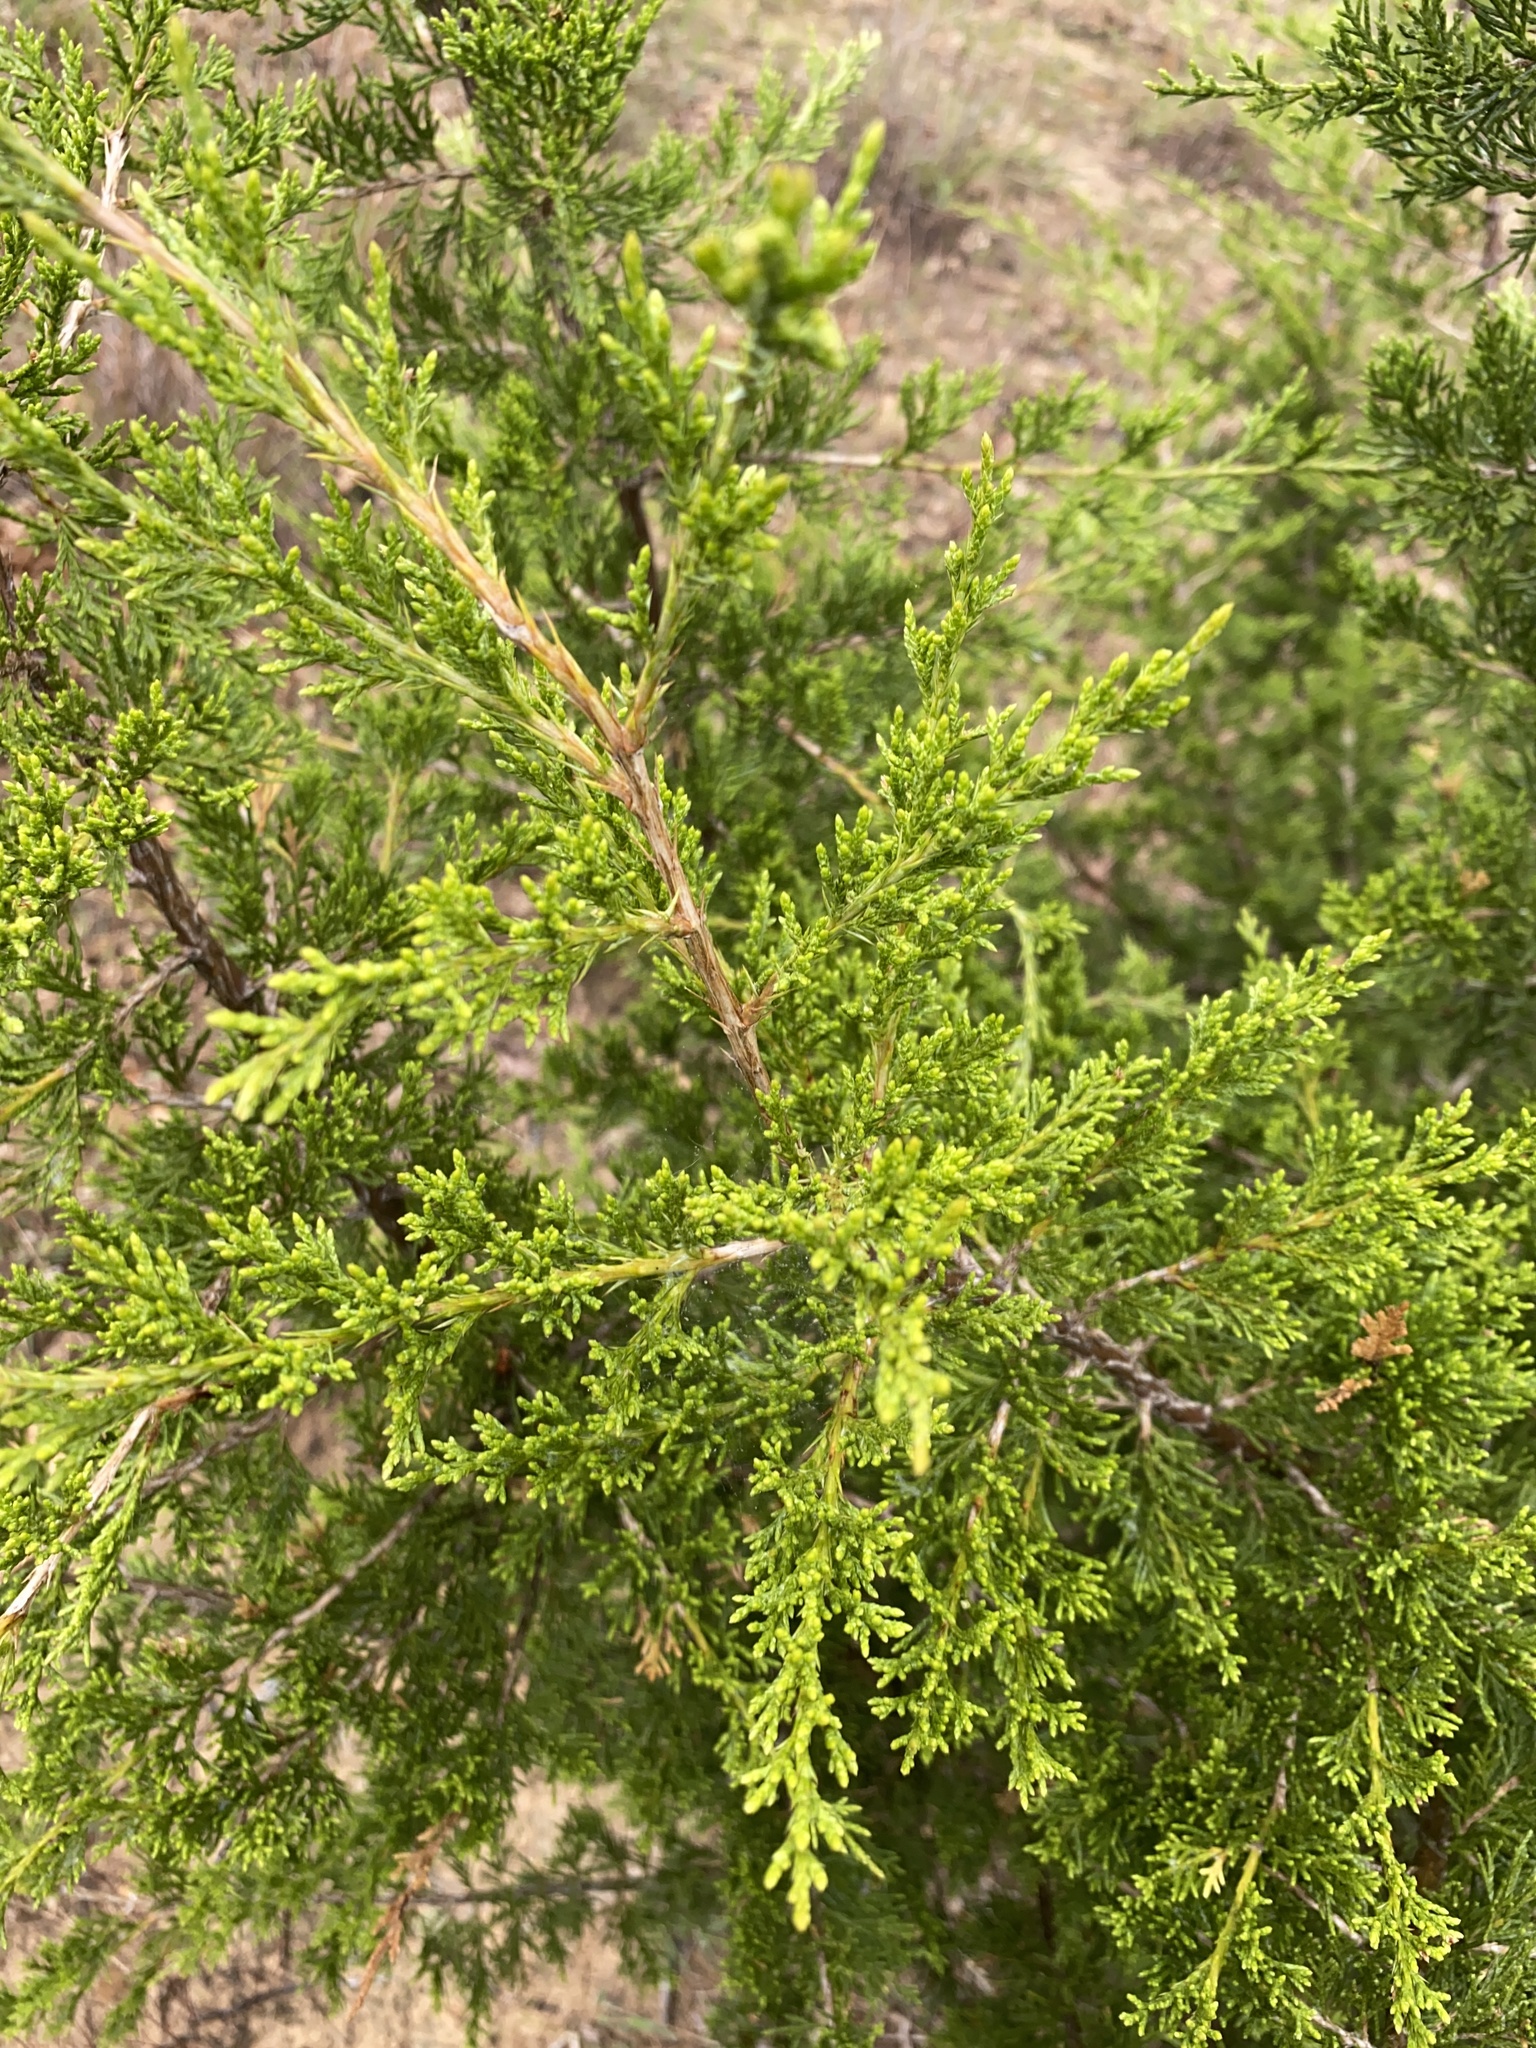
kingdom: Plantae
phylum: Tracheophyta
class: Pinopsida
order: Pinales
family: Cupressaceae
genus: Juniperus
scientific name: Juniperus virginiana
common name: Red juniper
